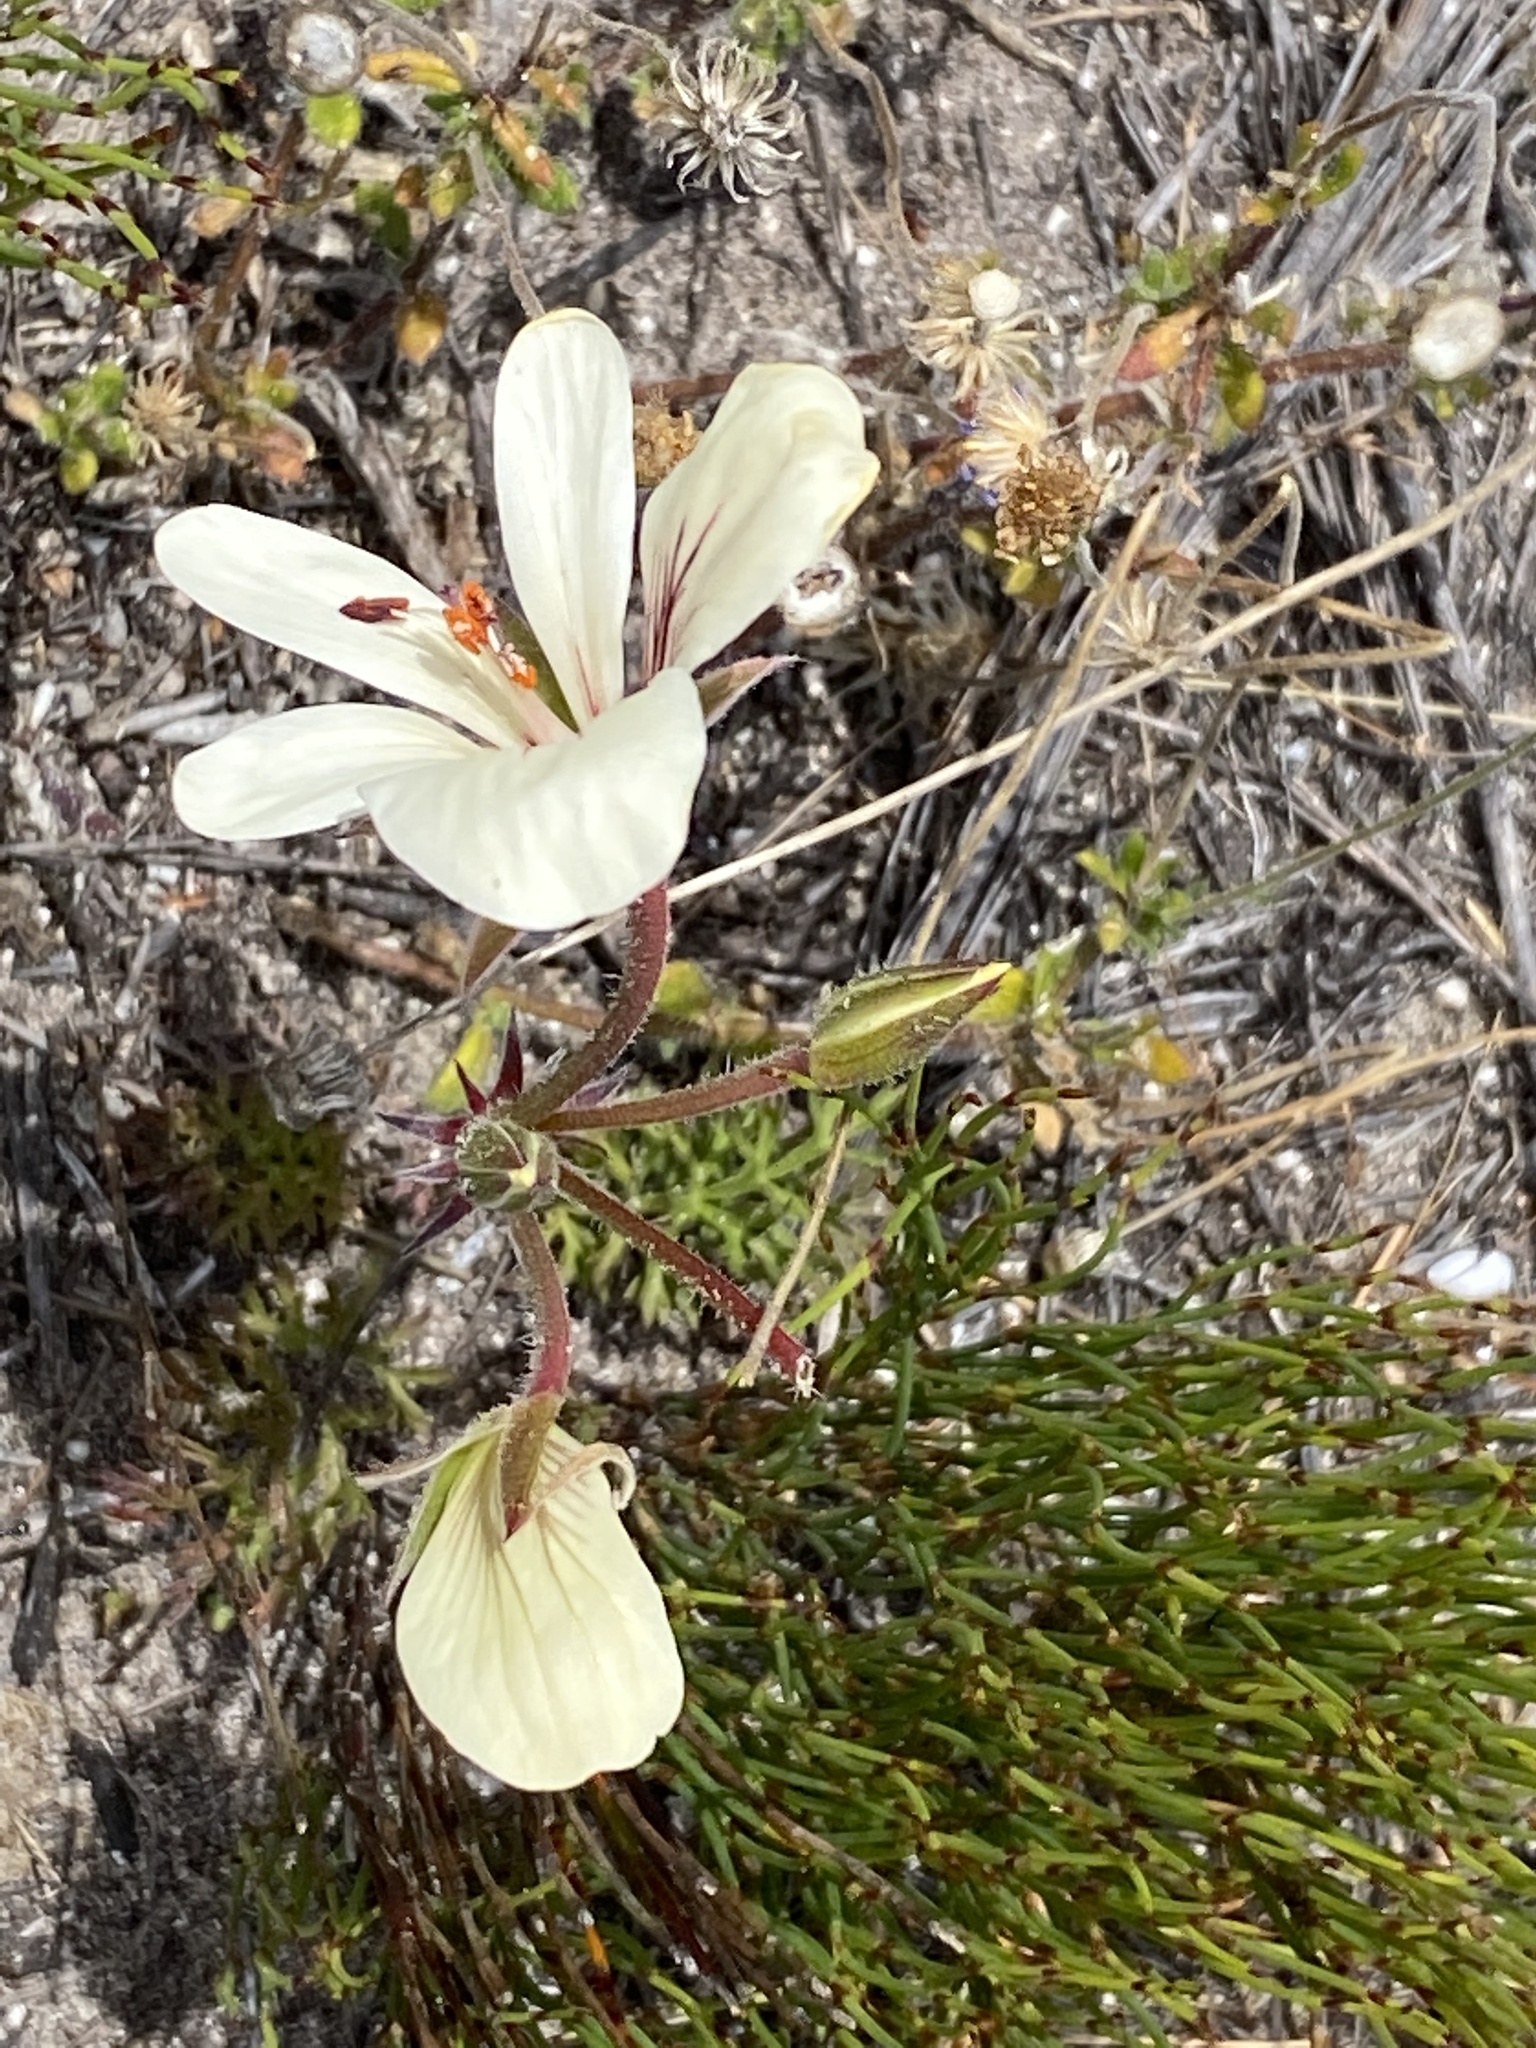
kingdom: Plantae
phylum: Tracheophyta
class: Magnoliopsida
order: Geraniales
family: Geraniaceae
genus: Pelargonium
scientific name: Pelargonium carneum
